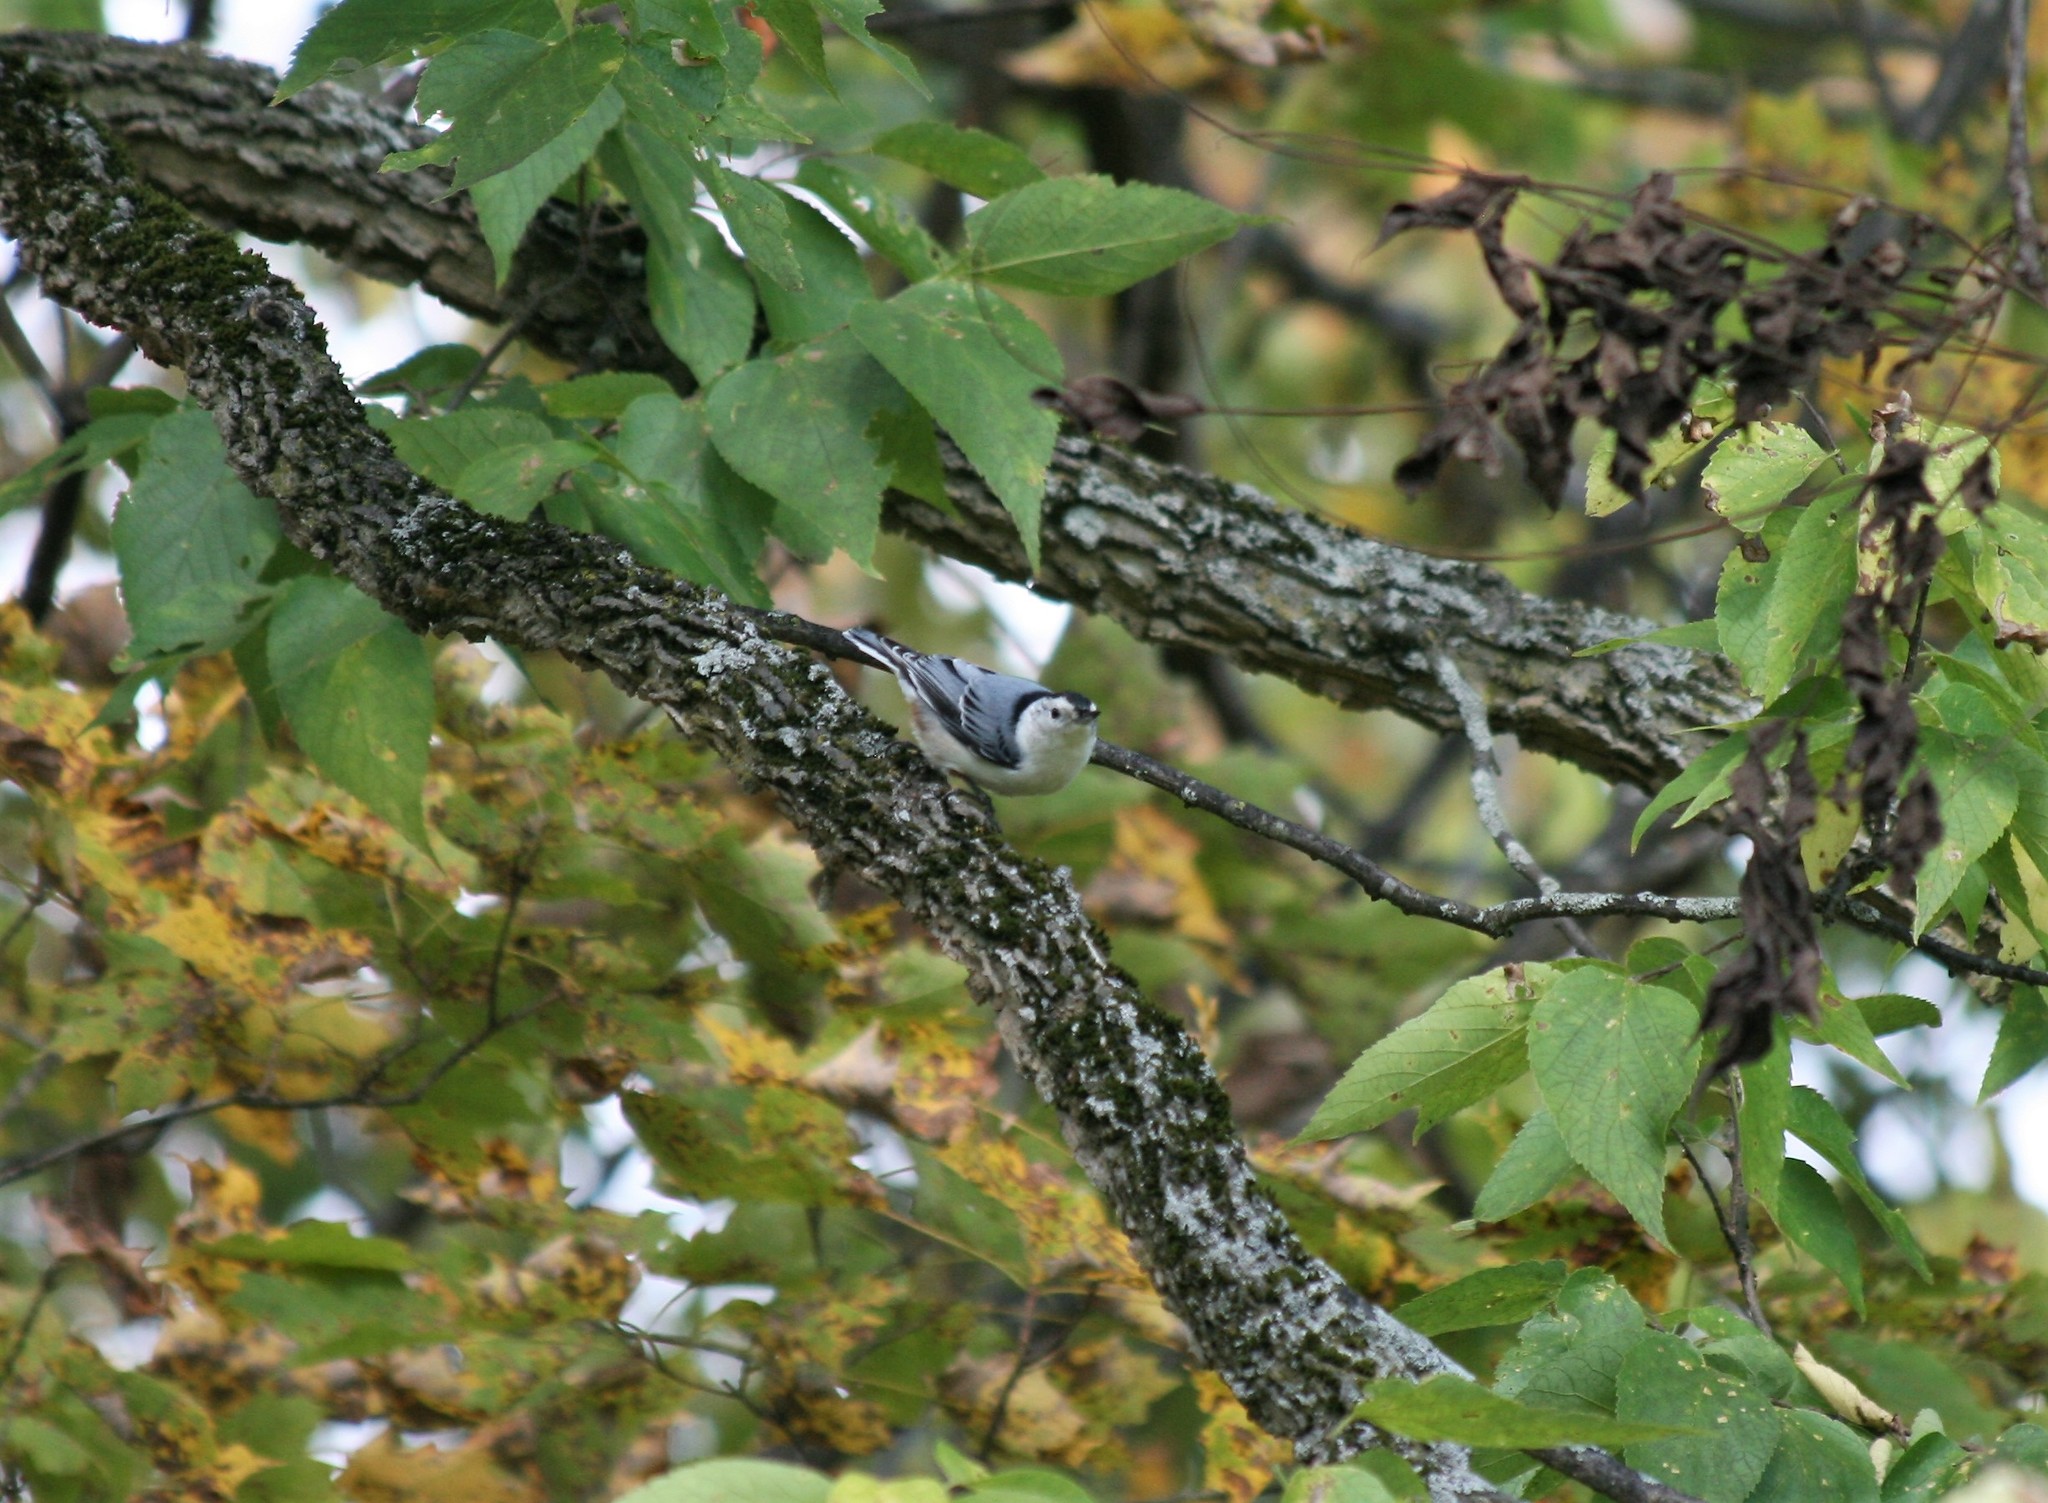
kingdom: Animalia
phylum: Chordata
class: Aves
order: Passeriformes
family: Sittidae
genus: Sitta
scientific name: Sitta carolinensis
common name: White-breasted nuthatch
